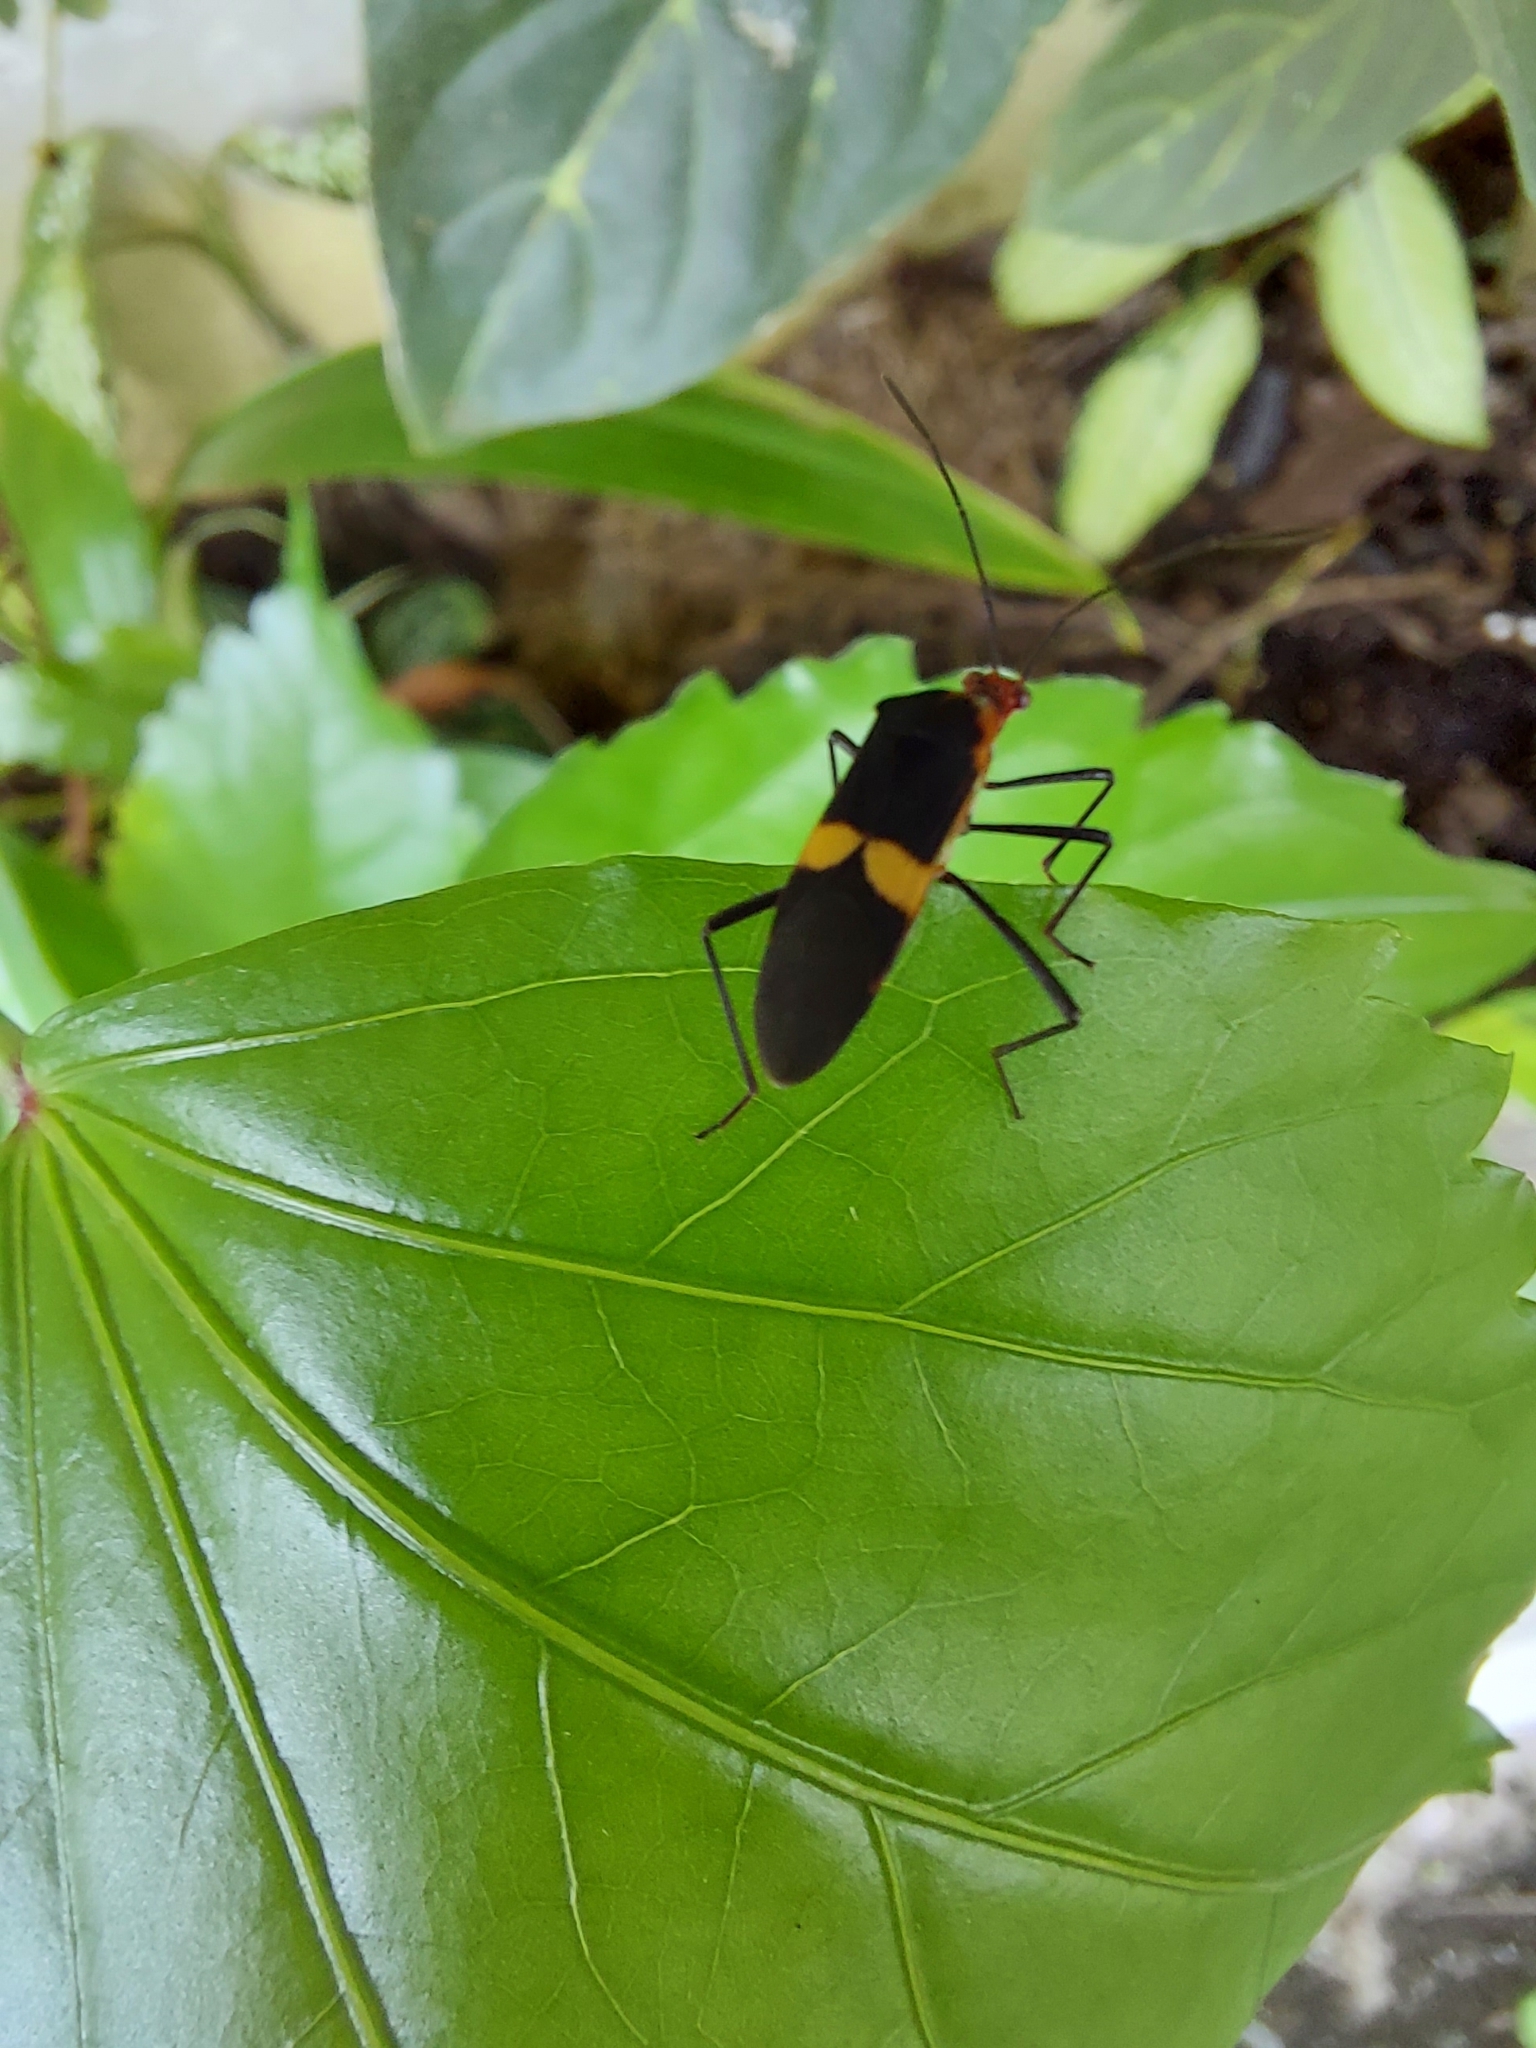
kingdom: Animalia
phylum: Arthropoda
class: Insecta
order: Hemiptera
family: Coreidae
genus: Hypselonotus
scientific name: Hypselonotus interruptus
